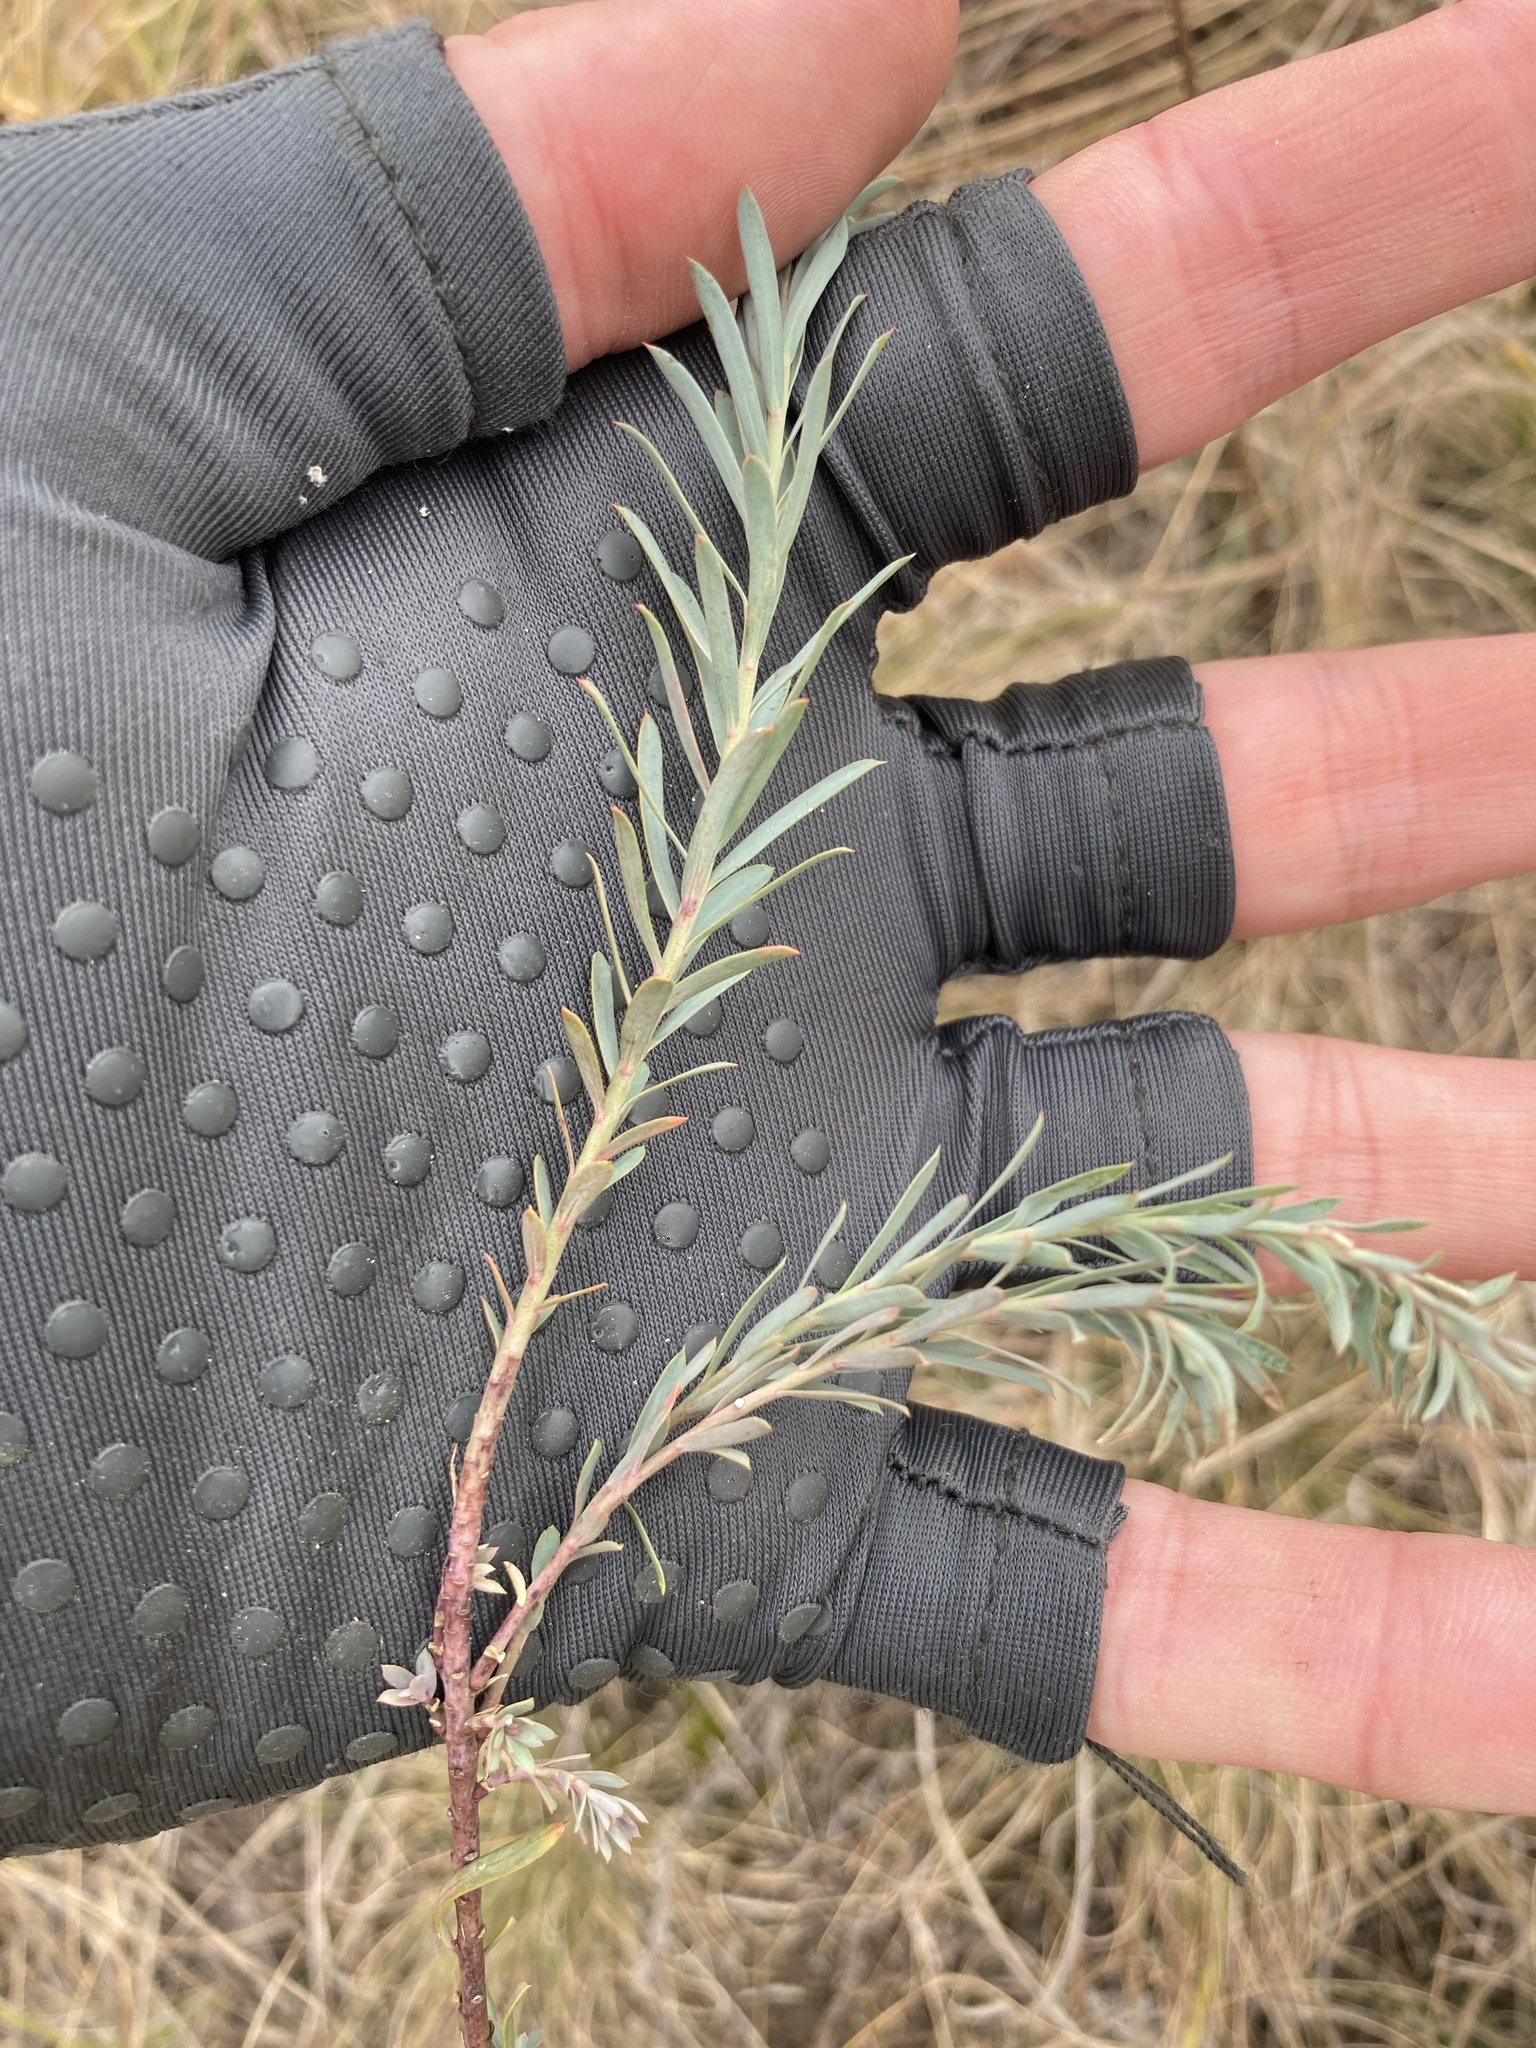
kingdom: Plantae
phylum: Tracheophyta
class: Magnoliopsida
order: Malpighiales
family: Euphorbiaceae
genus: Euphorbia
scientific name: Euphorbia seguieriana
